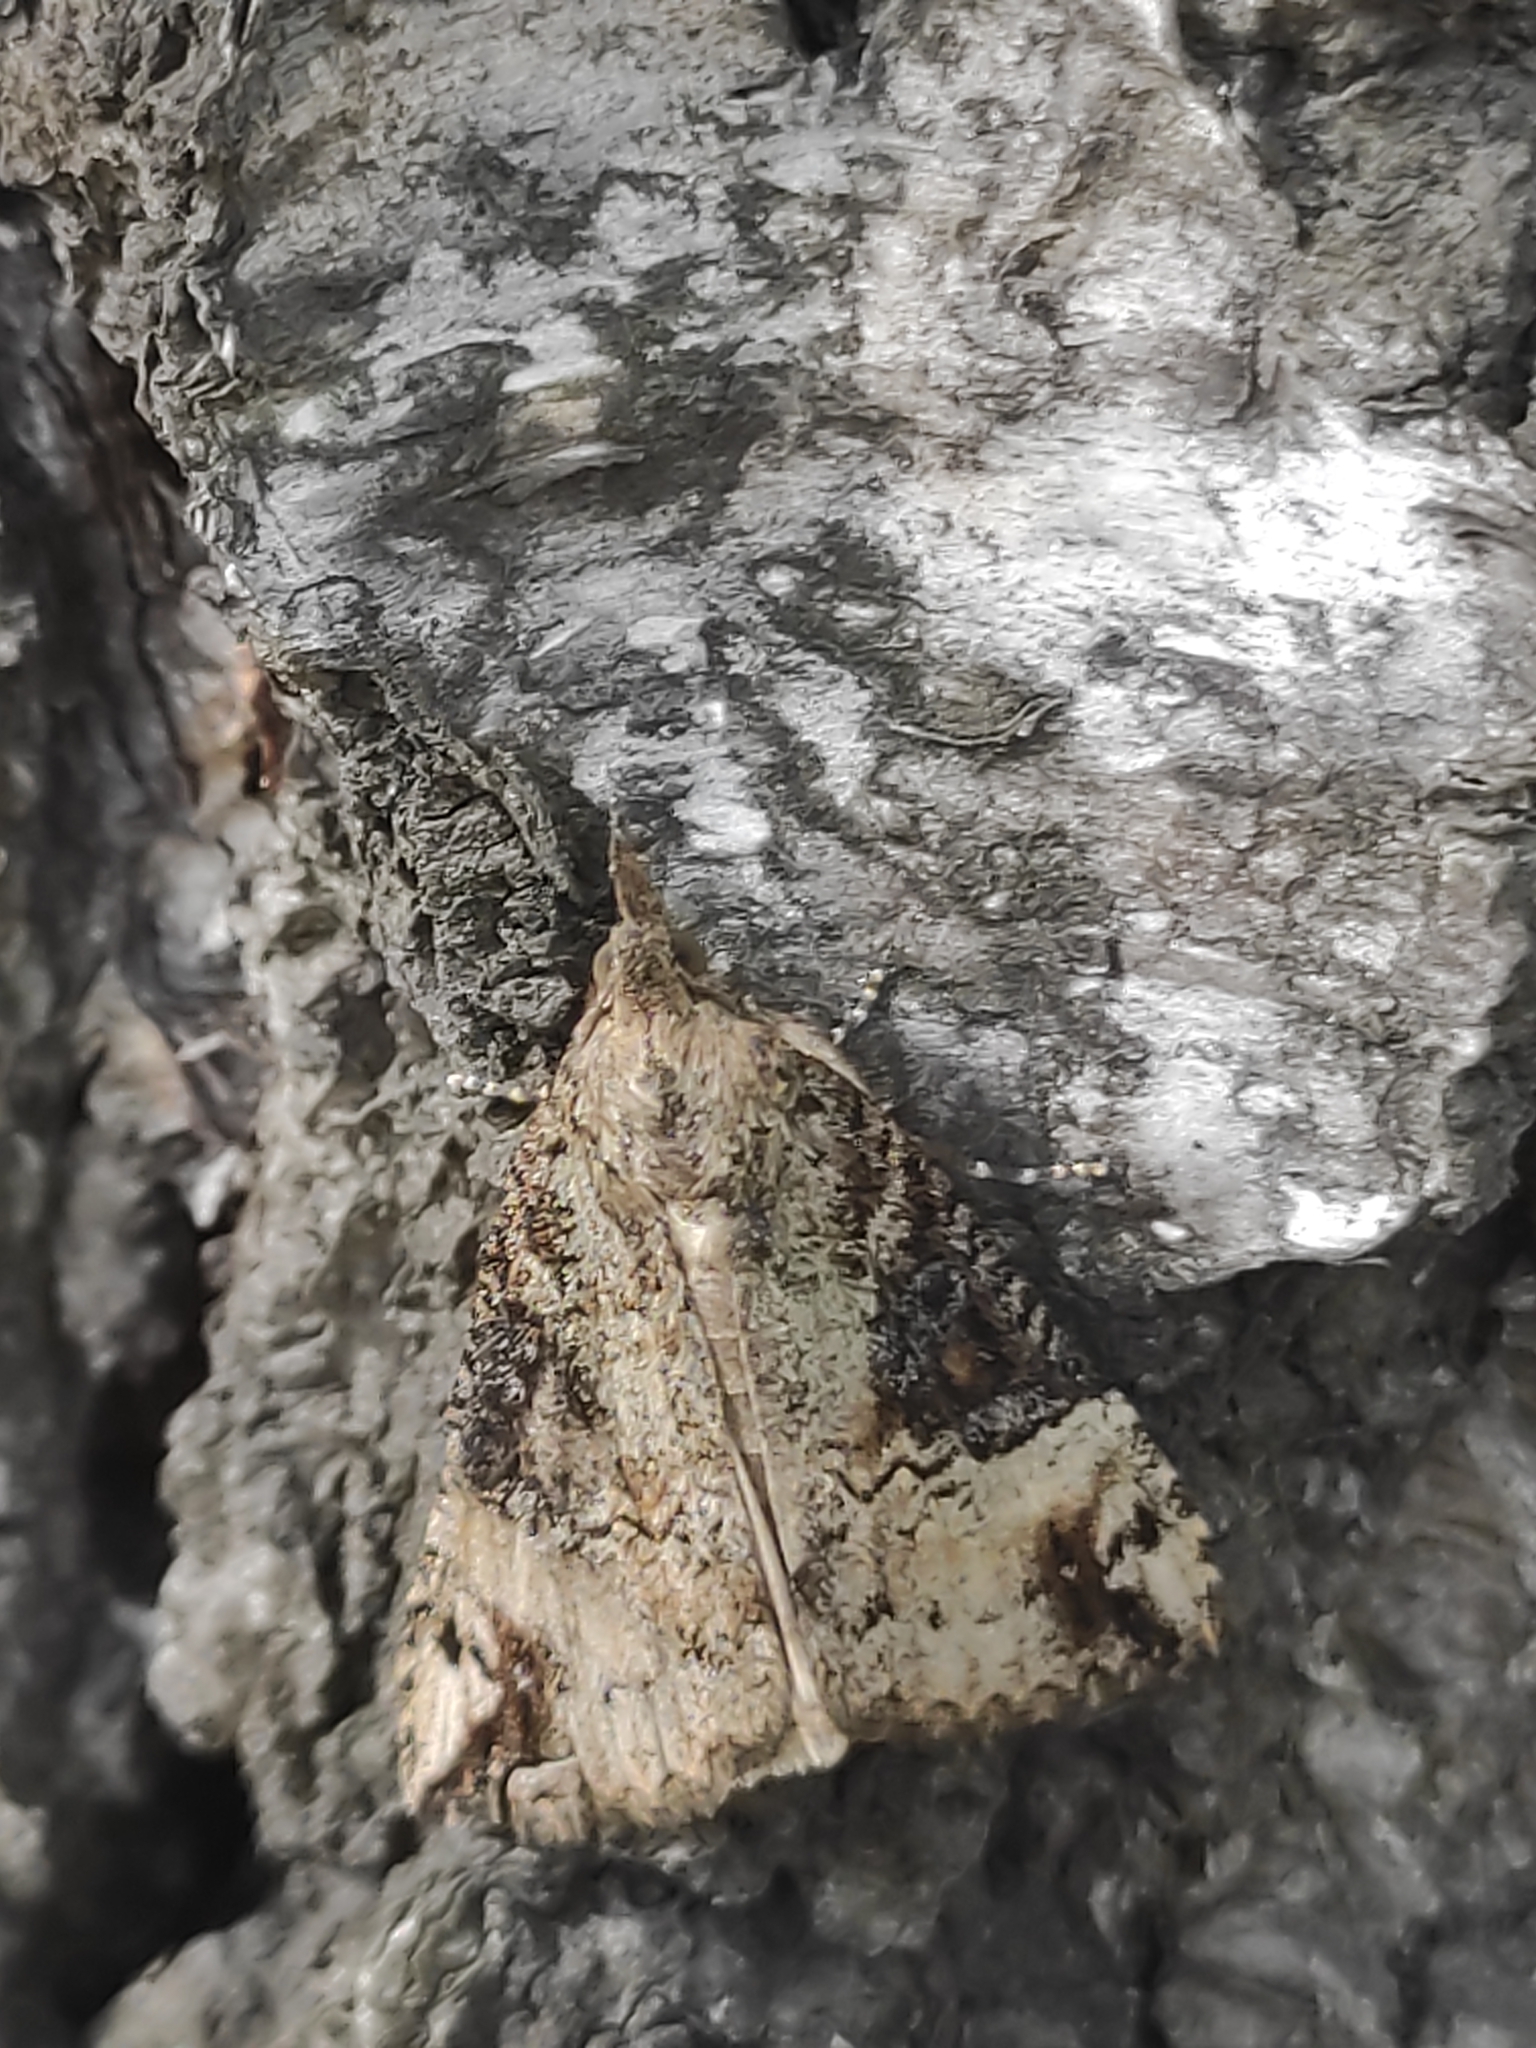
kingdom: Animalia
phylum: Arthropoda
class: Insecta
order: Lepidoptera
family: Erebidae
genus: Hypena
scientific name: Hypena tristalis
